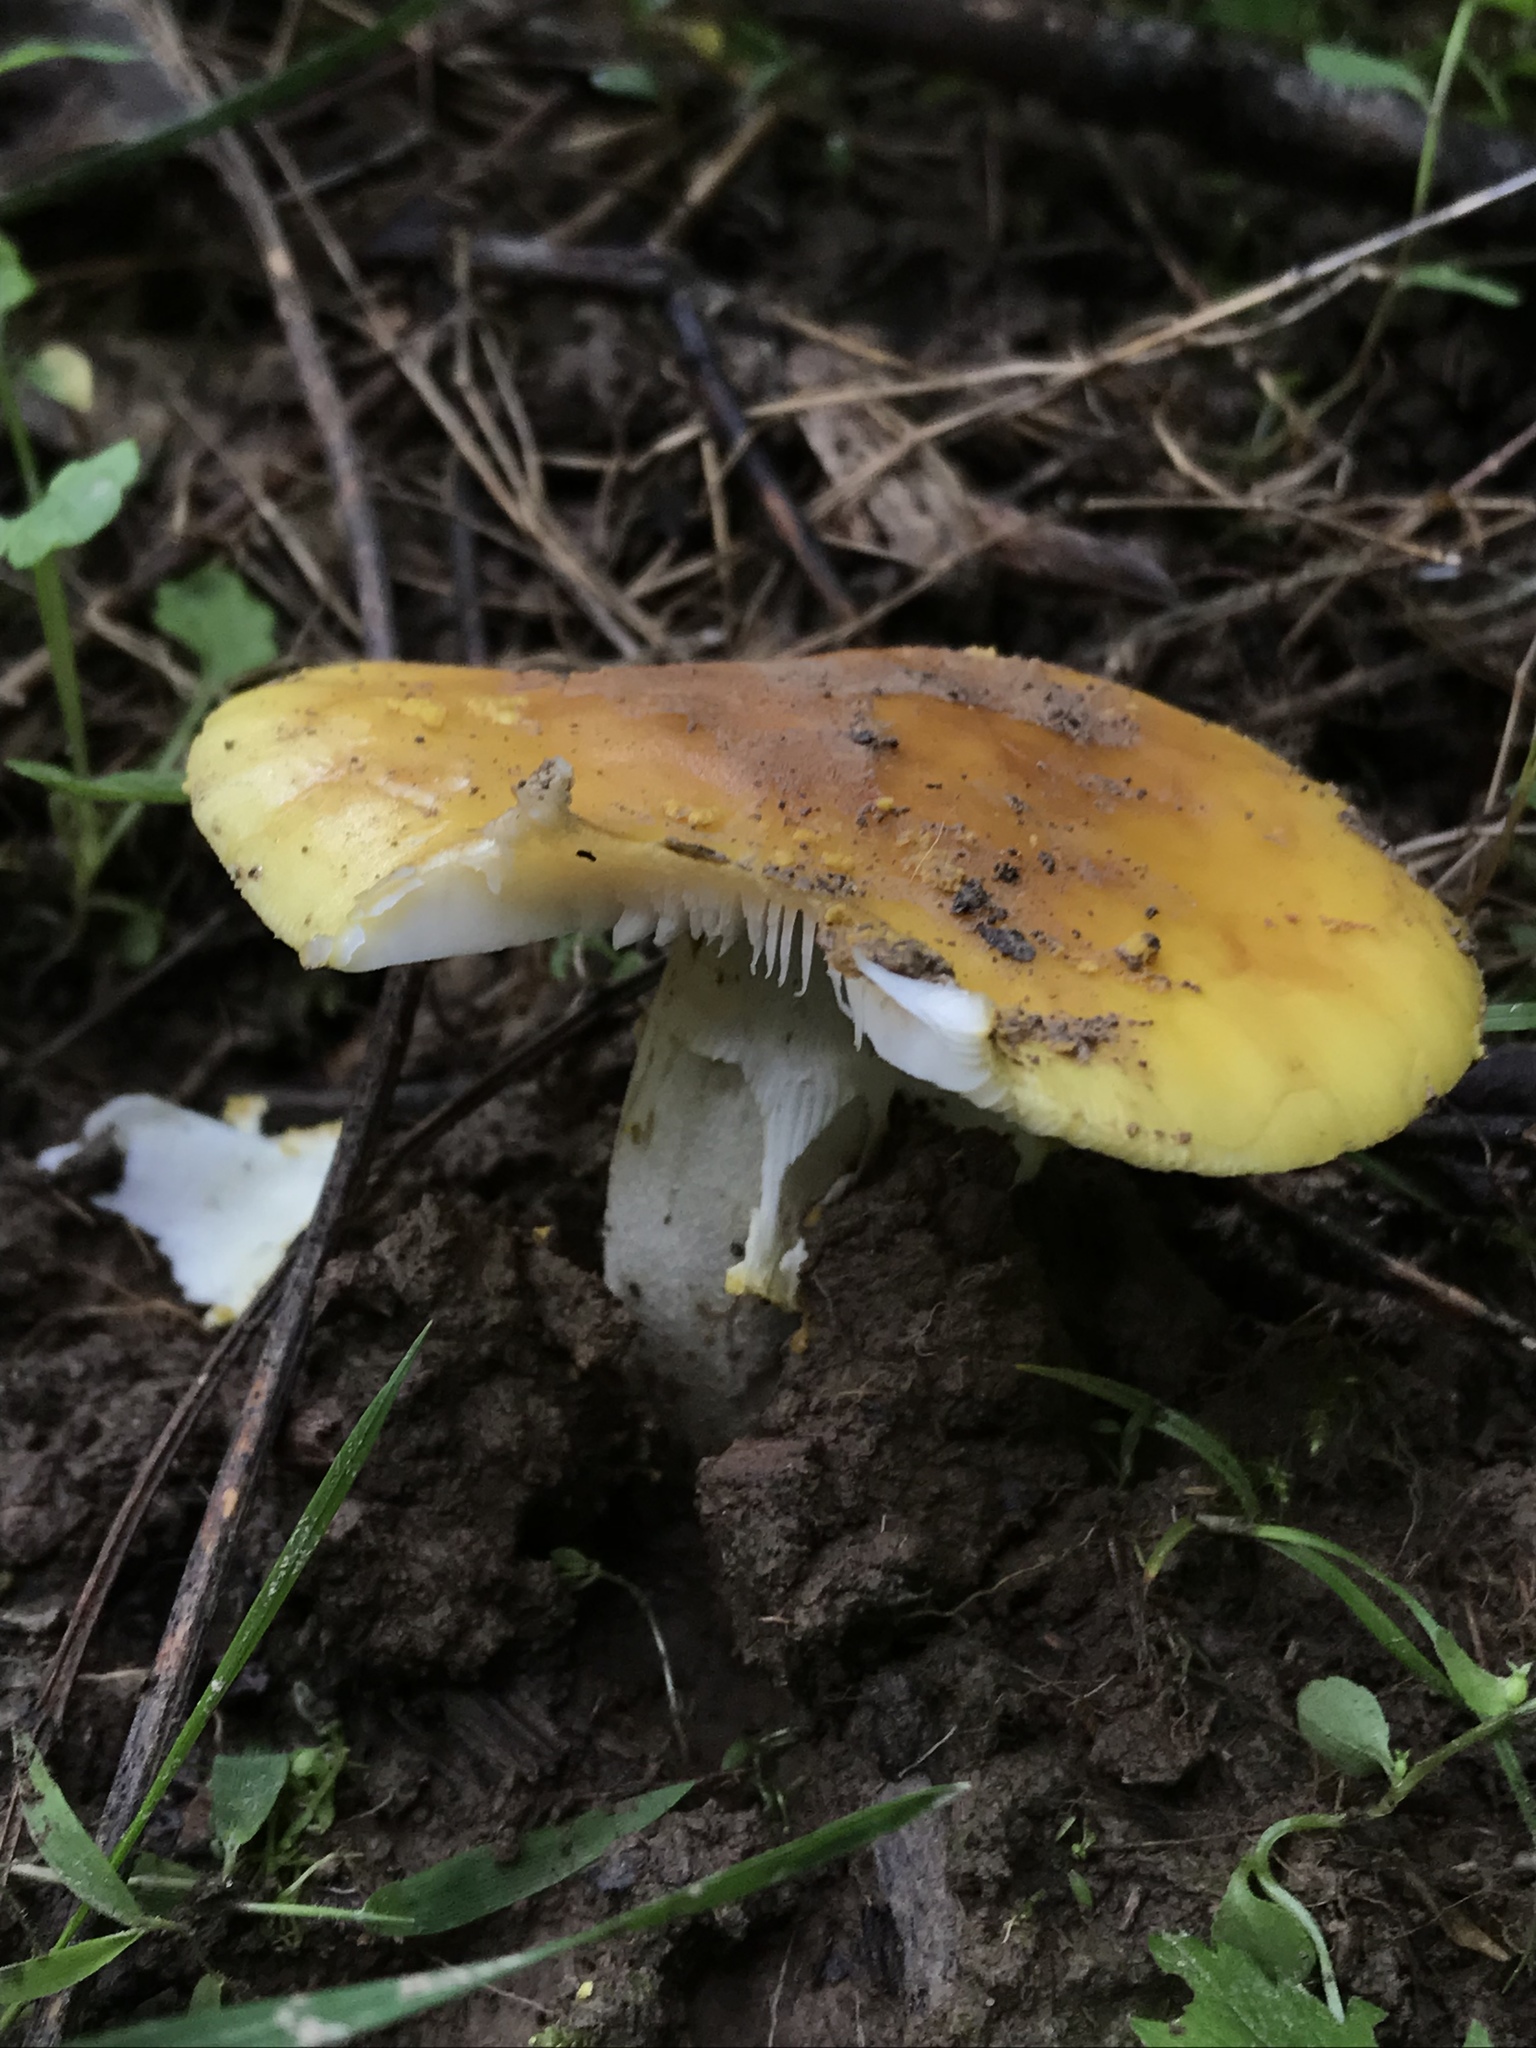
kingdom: Fungi
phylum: Basidiomycota
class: Agaricomycetes
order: Agaricales
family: Amanitaceae
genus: Amanita
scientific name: Amanita flavorubens
